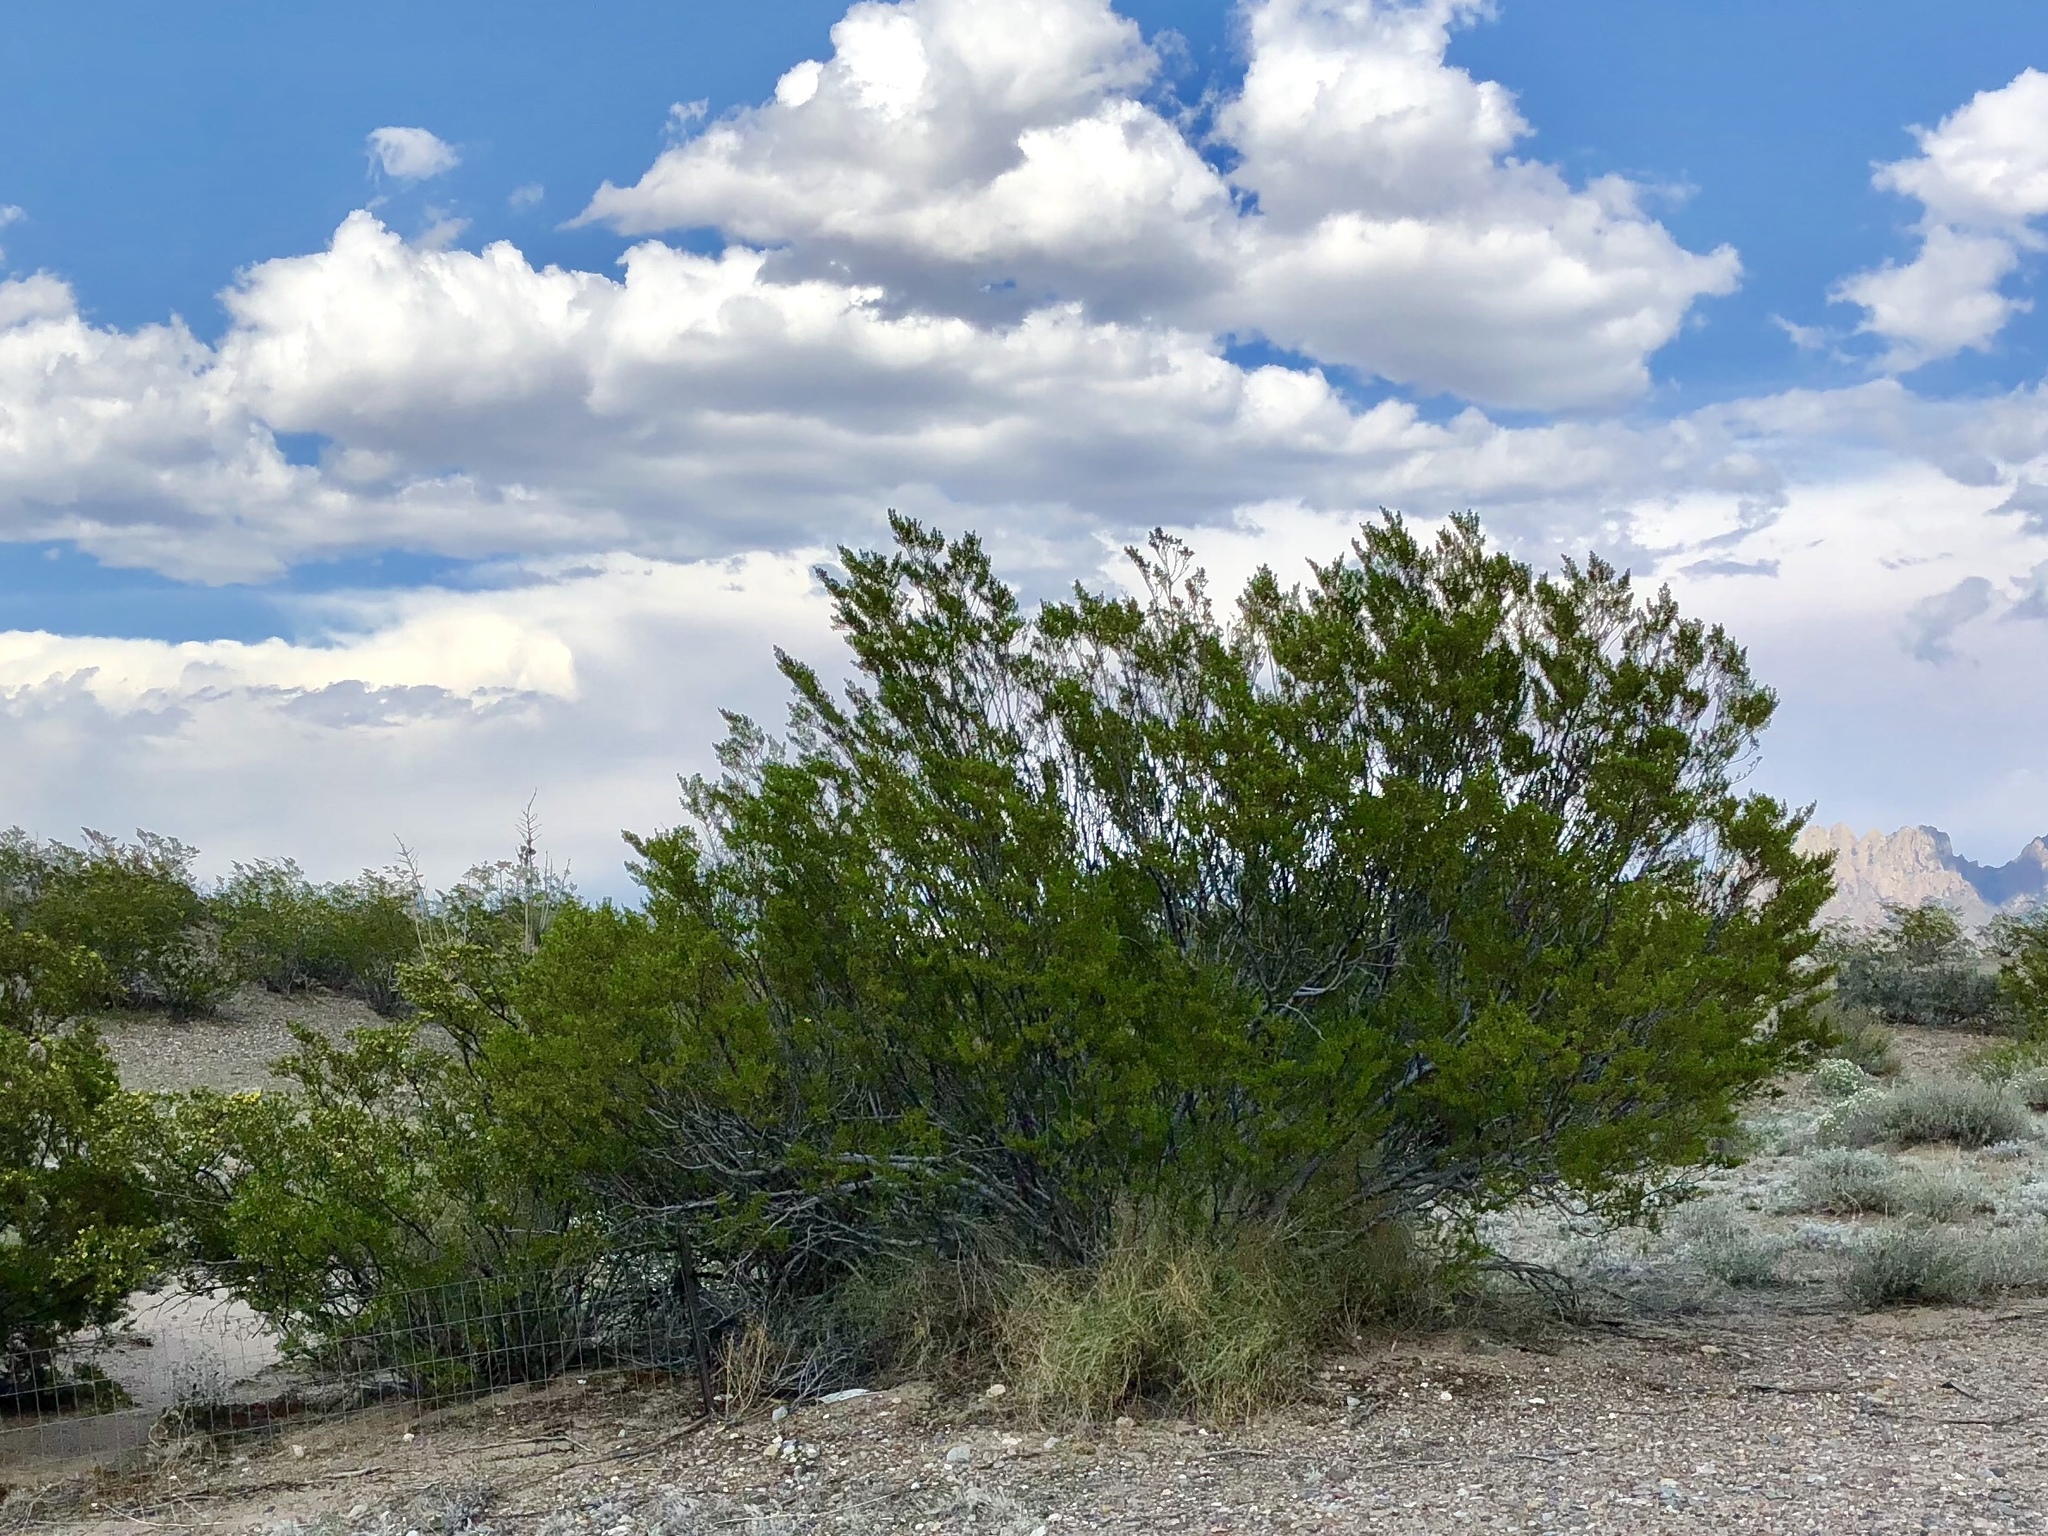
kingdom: Plantae
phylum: Tracheophyta
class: Magnoliopsida
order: Zygophyllales
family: Zygophyllaceae
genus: Larrea
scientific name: Larrea tridentata
